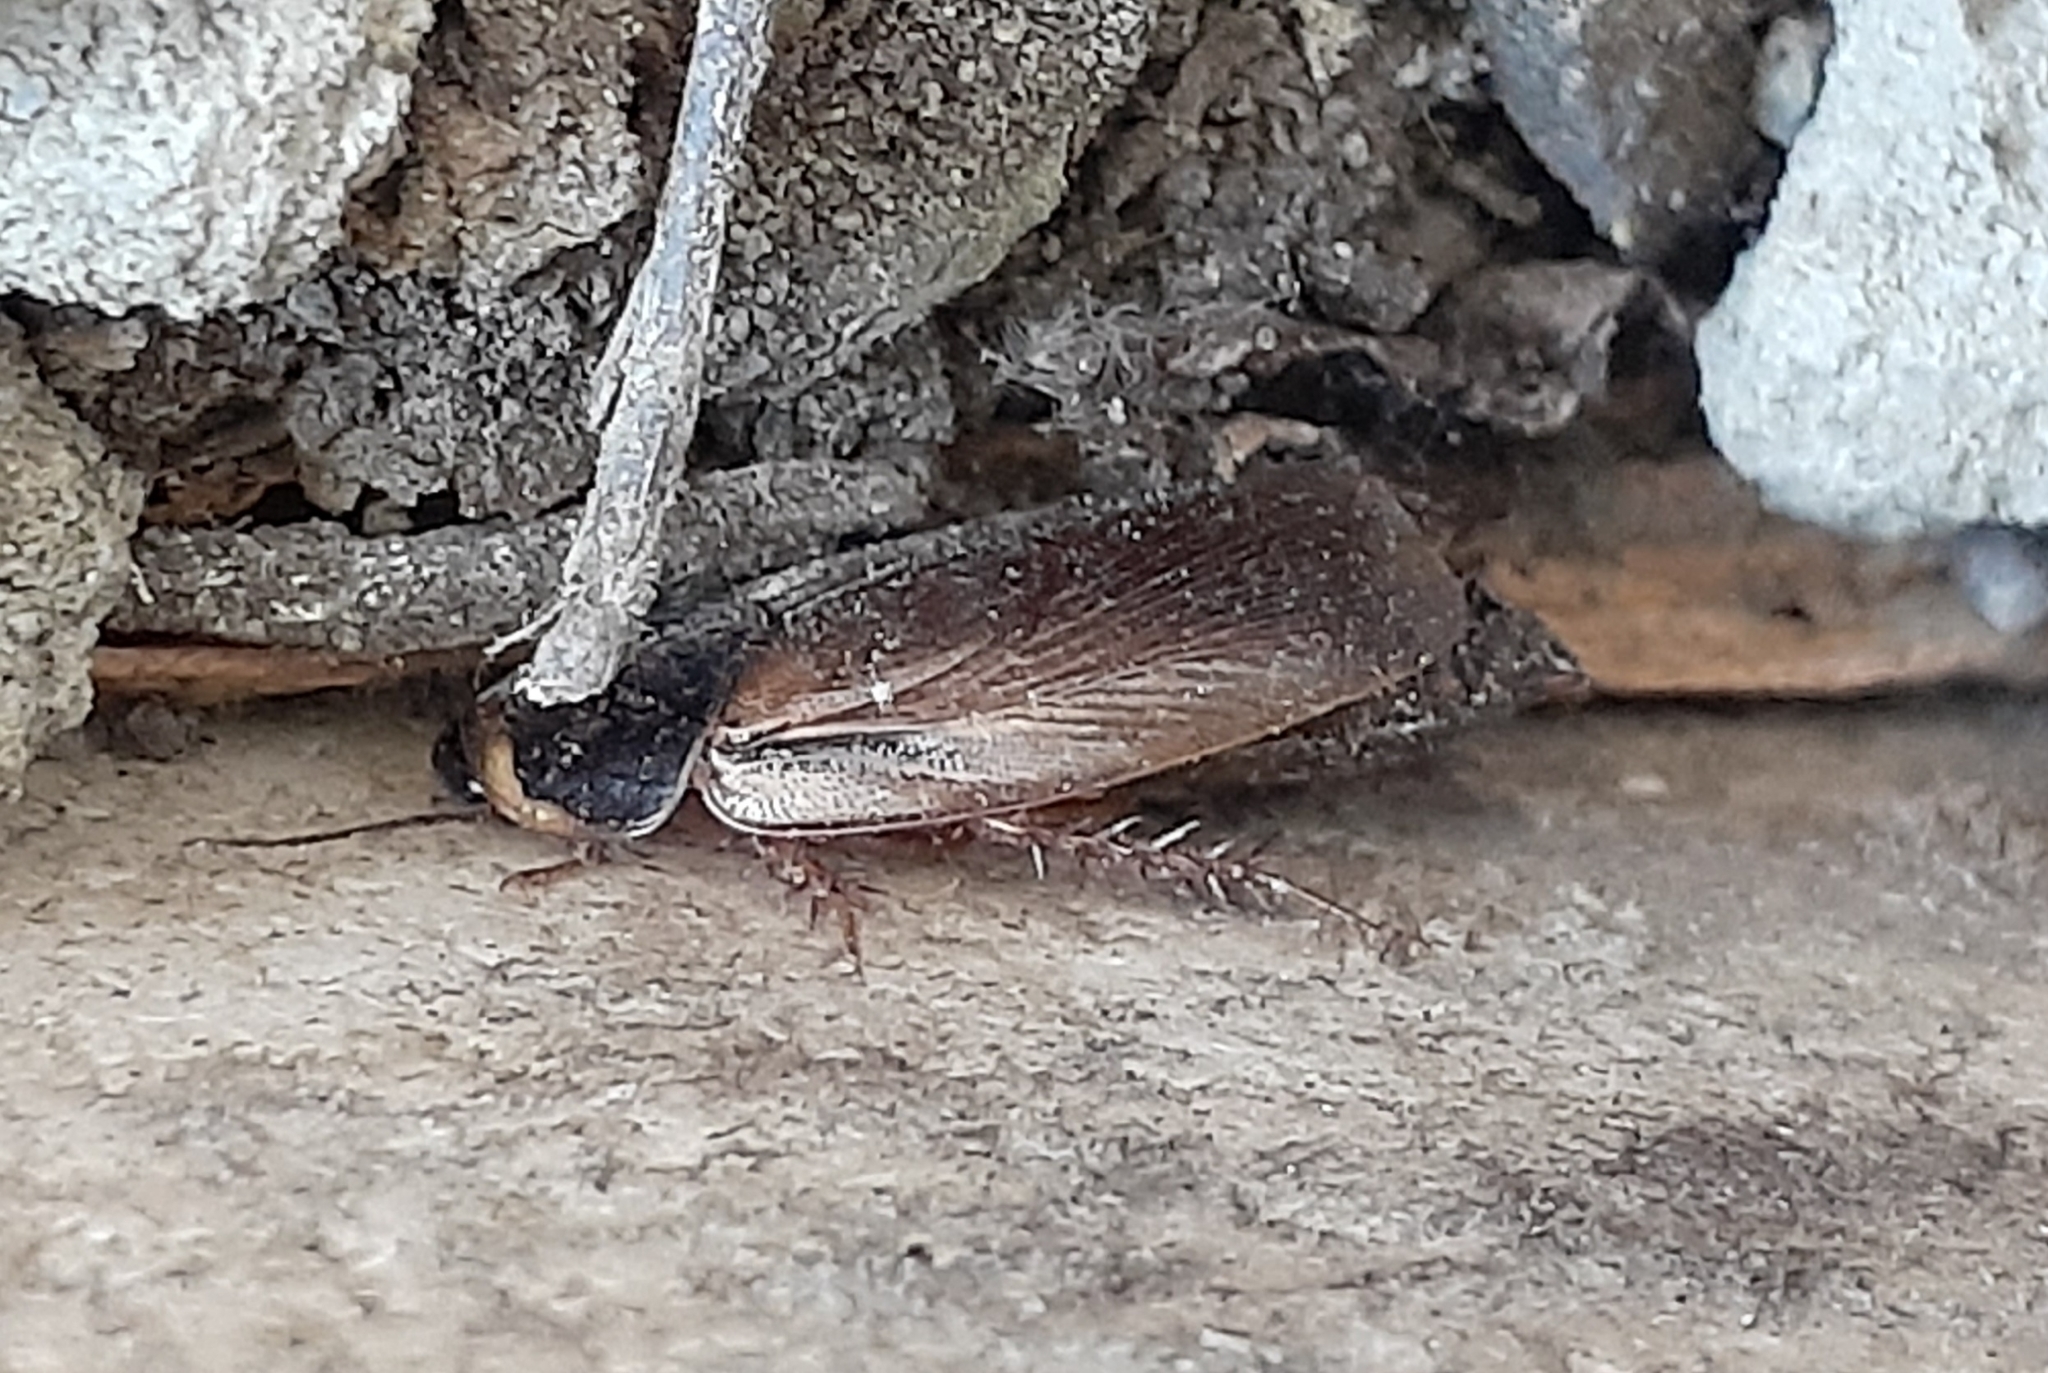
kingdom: Animalia
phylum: Arthropoda
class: Insecta
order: Blattodea
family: Blaberidae
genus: Pycnoscelus
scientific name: Pycnoscelus surinamensis
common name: Surinam cockroach
